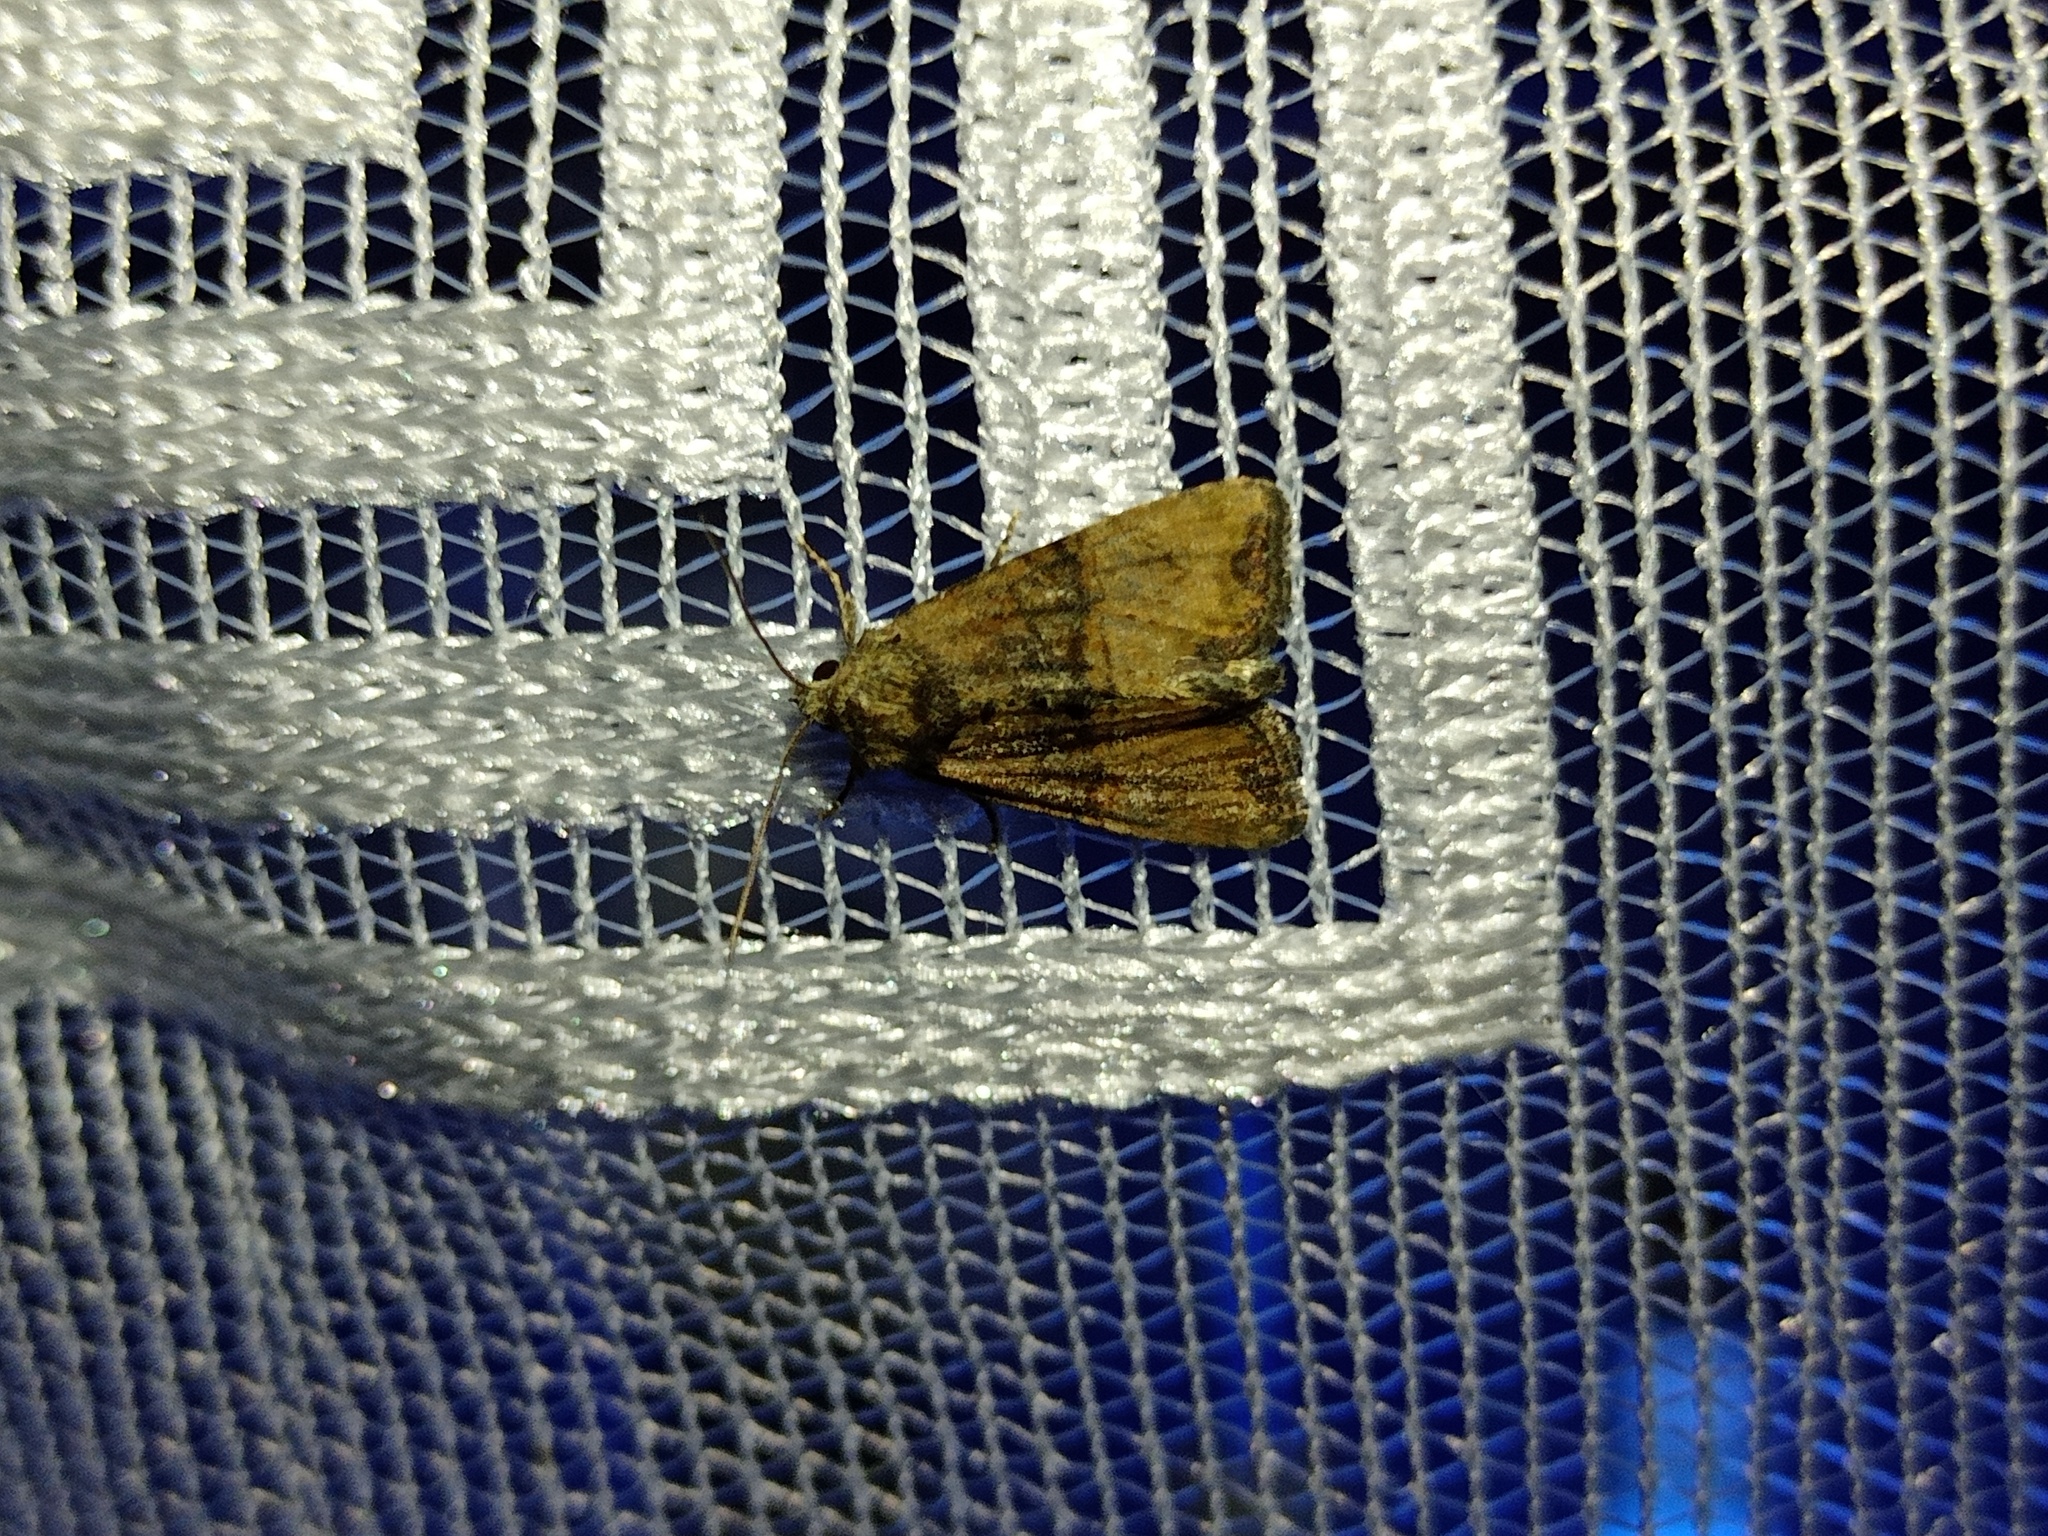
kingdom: Animalia
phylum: Arthropoda
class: Insecta
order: Lepidoptera
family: Noctuidae
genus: Mesoligia
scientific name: Mesoligia furuncula
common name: Cloaked minor
